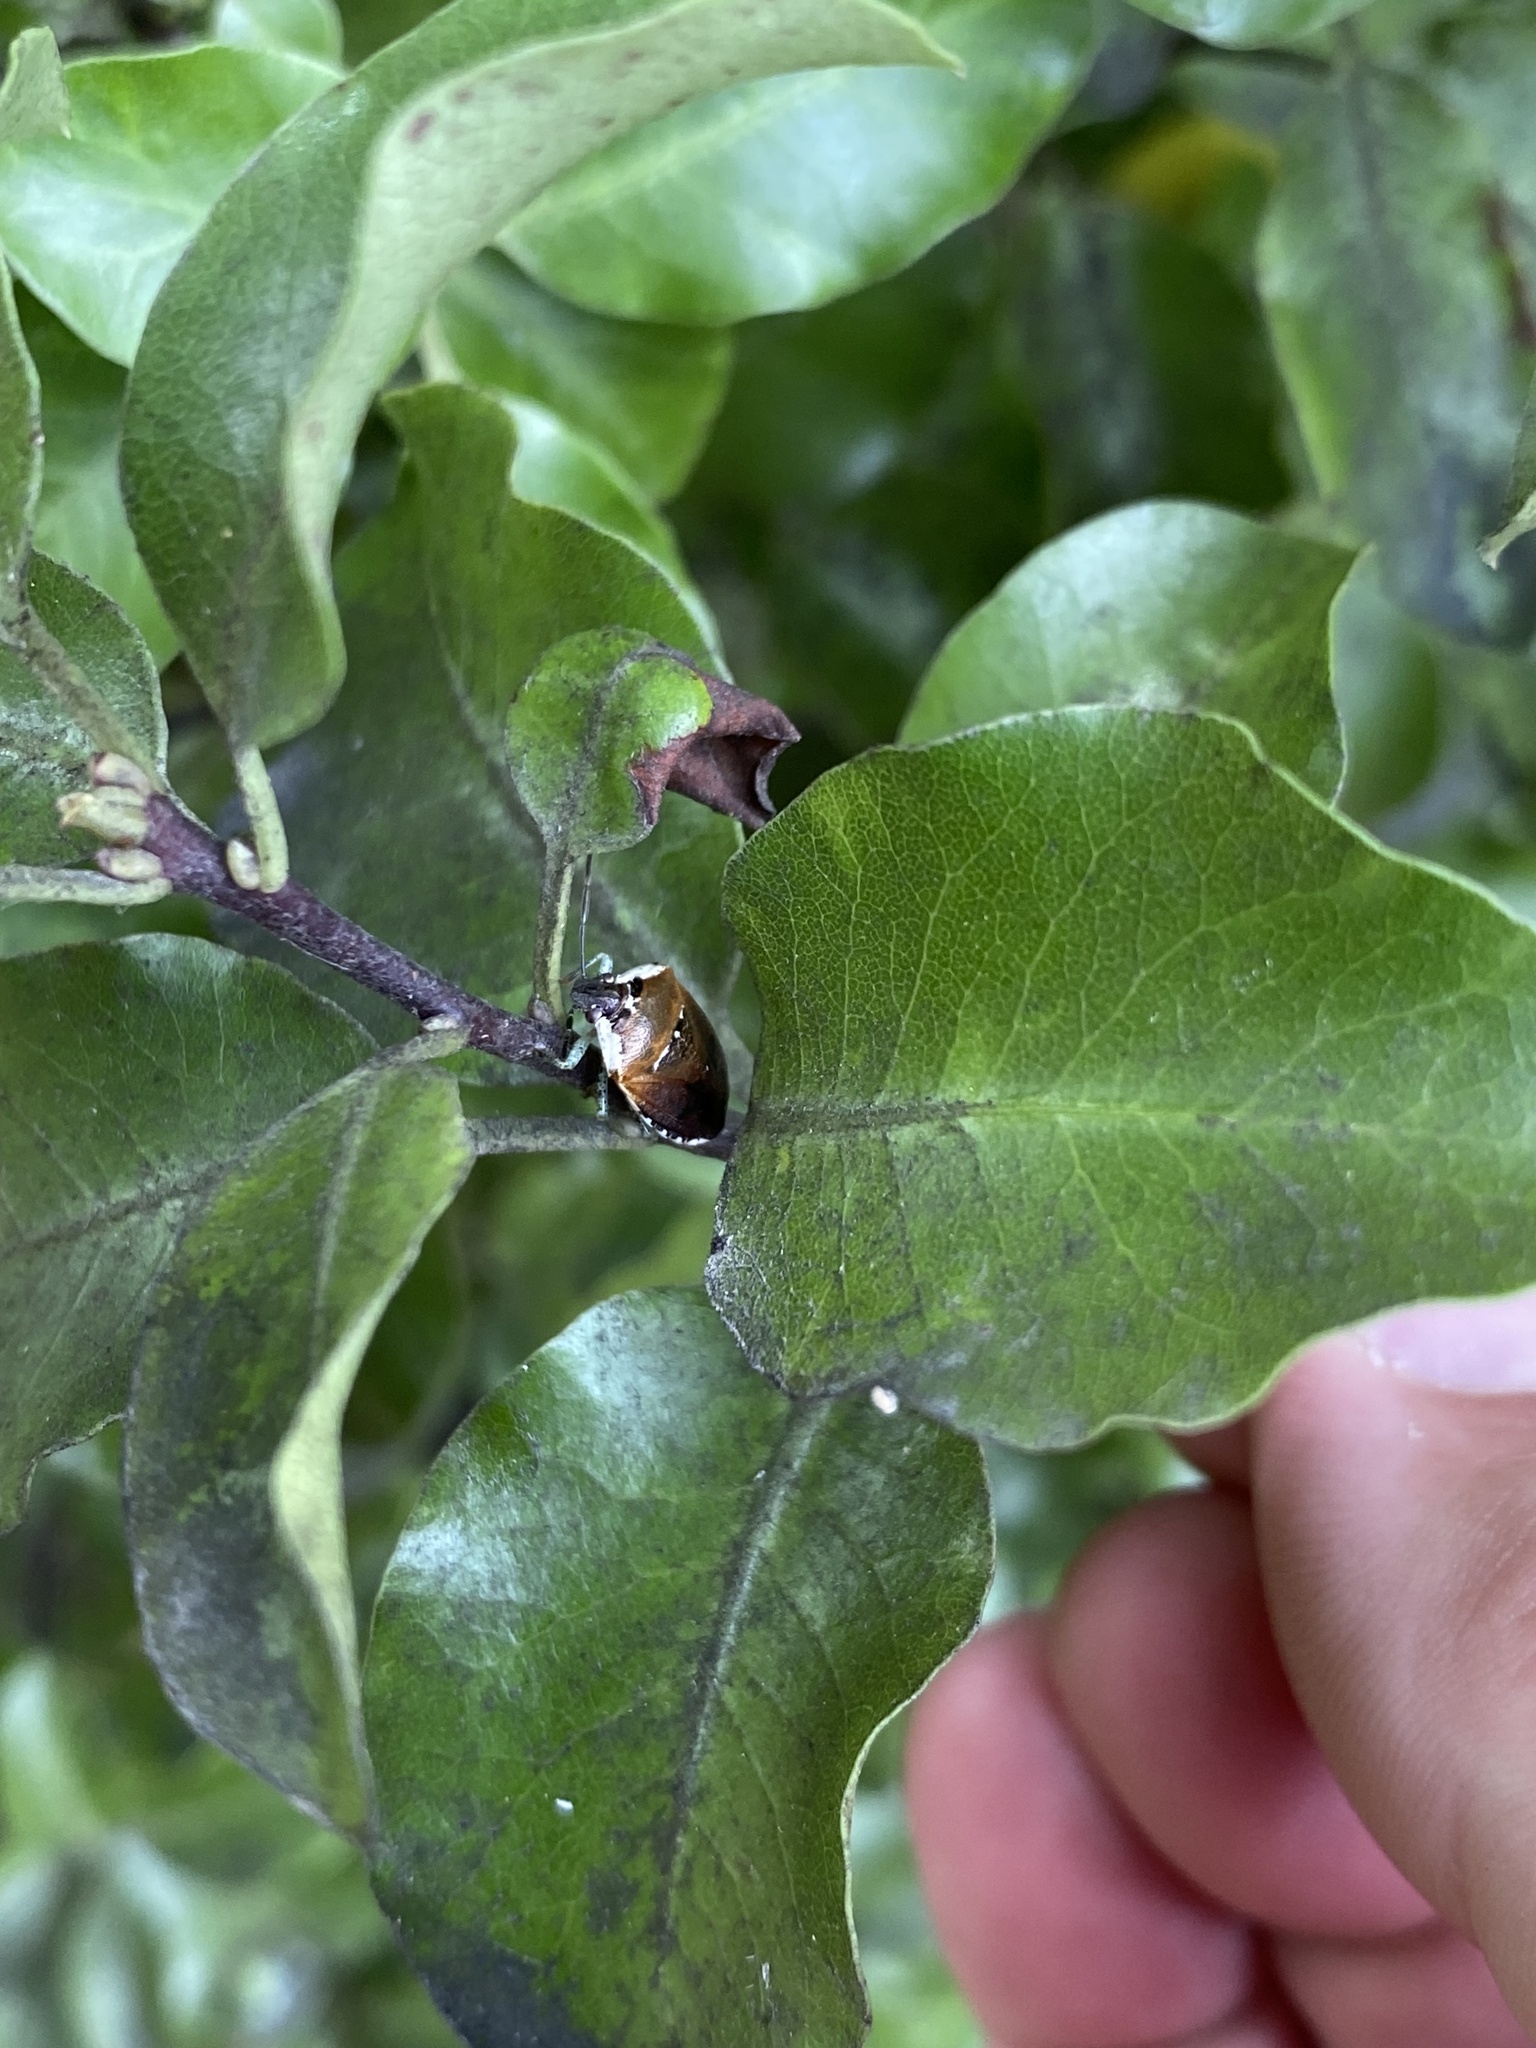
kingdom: Animalia
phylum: Arthropoda
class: Insecta
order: Hemiptera
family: Pentatomidae
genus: Monteithiella
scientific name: Monteithiella
